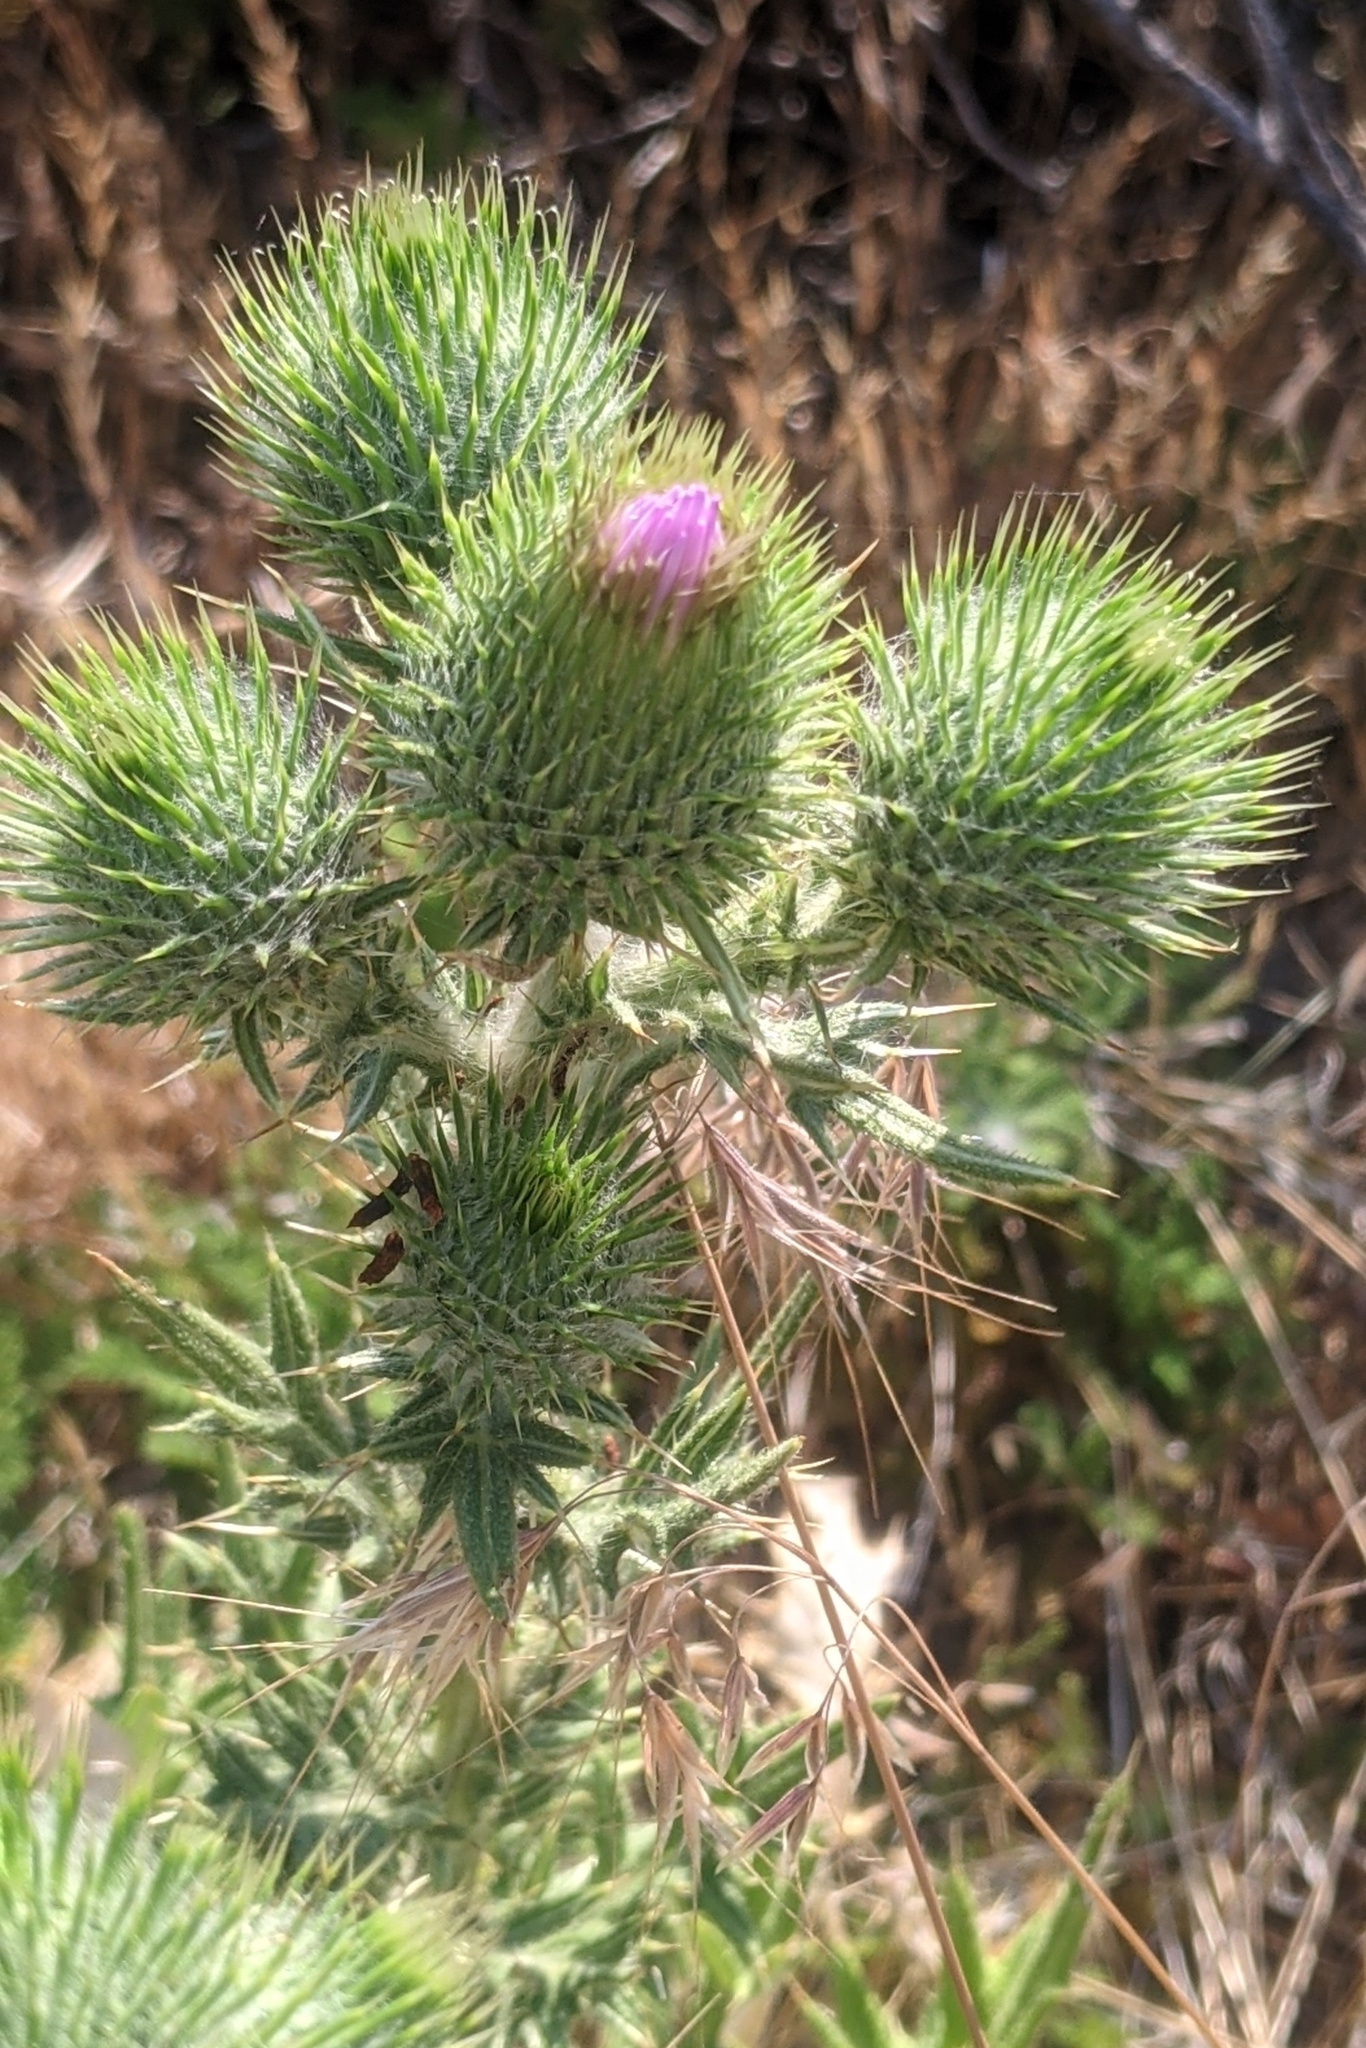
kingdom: Plantae
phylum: Tracheophyta
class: Magnoliopsida
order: Asterales
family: Asteraceae
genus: Cirsium
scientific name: Cirsium vulgare
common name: Bull thistle
